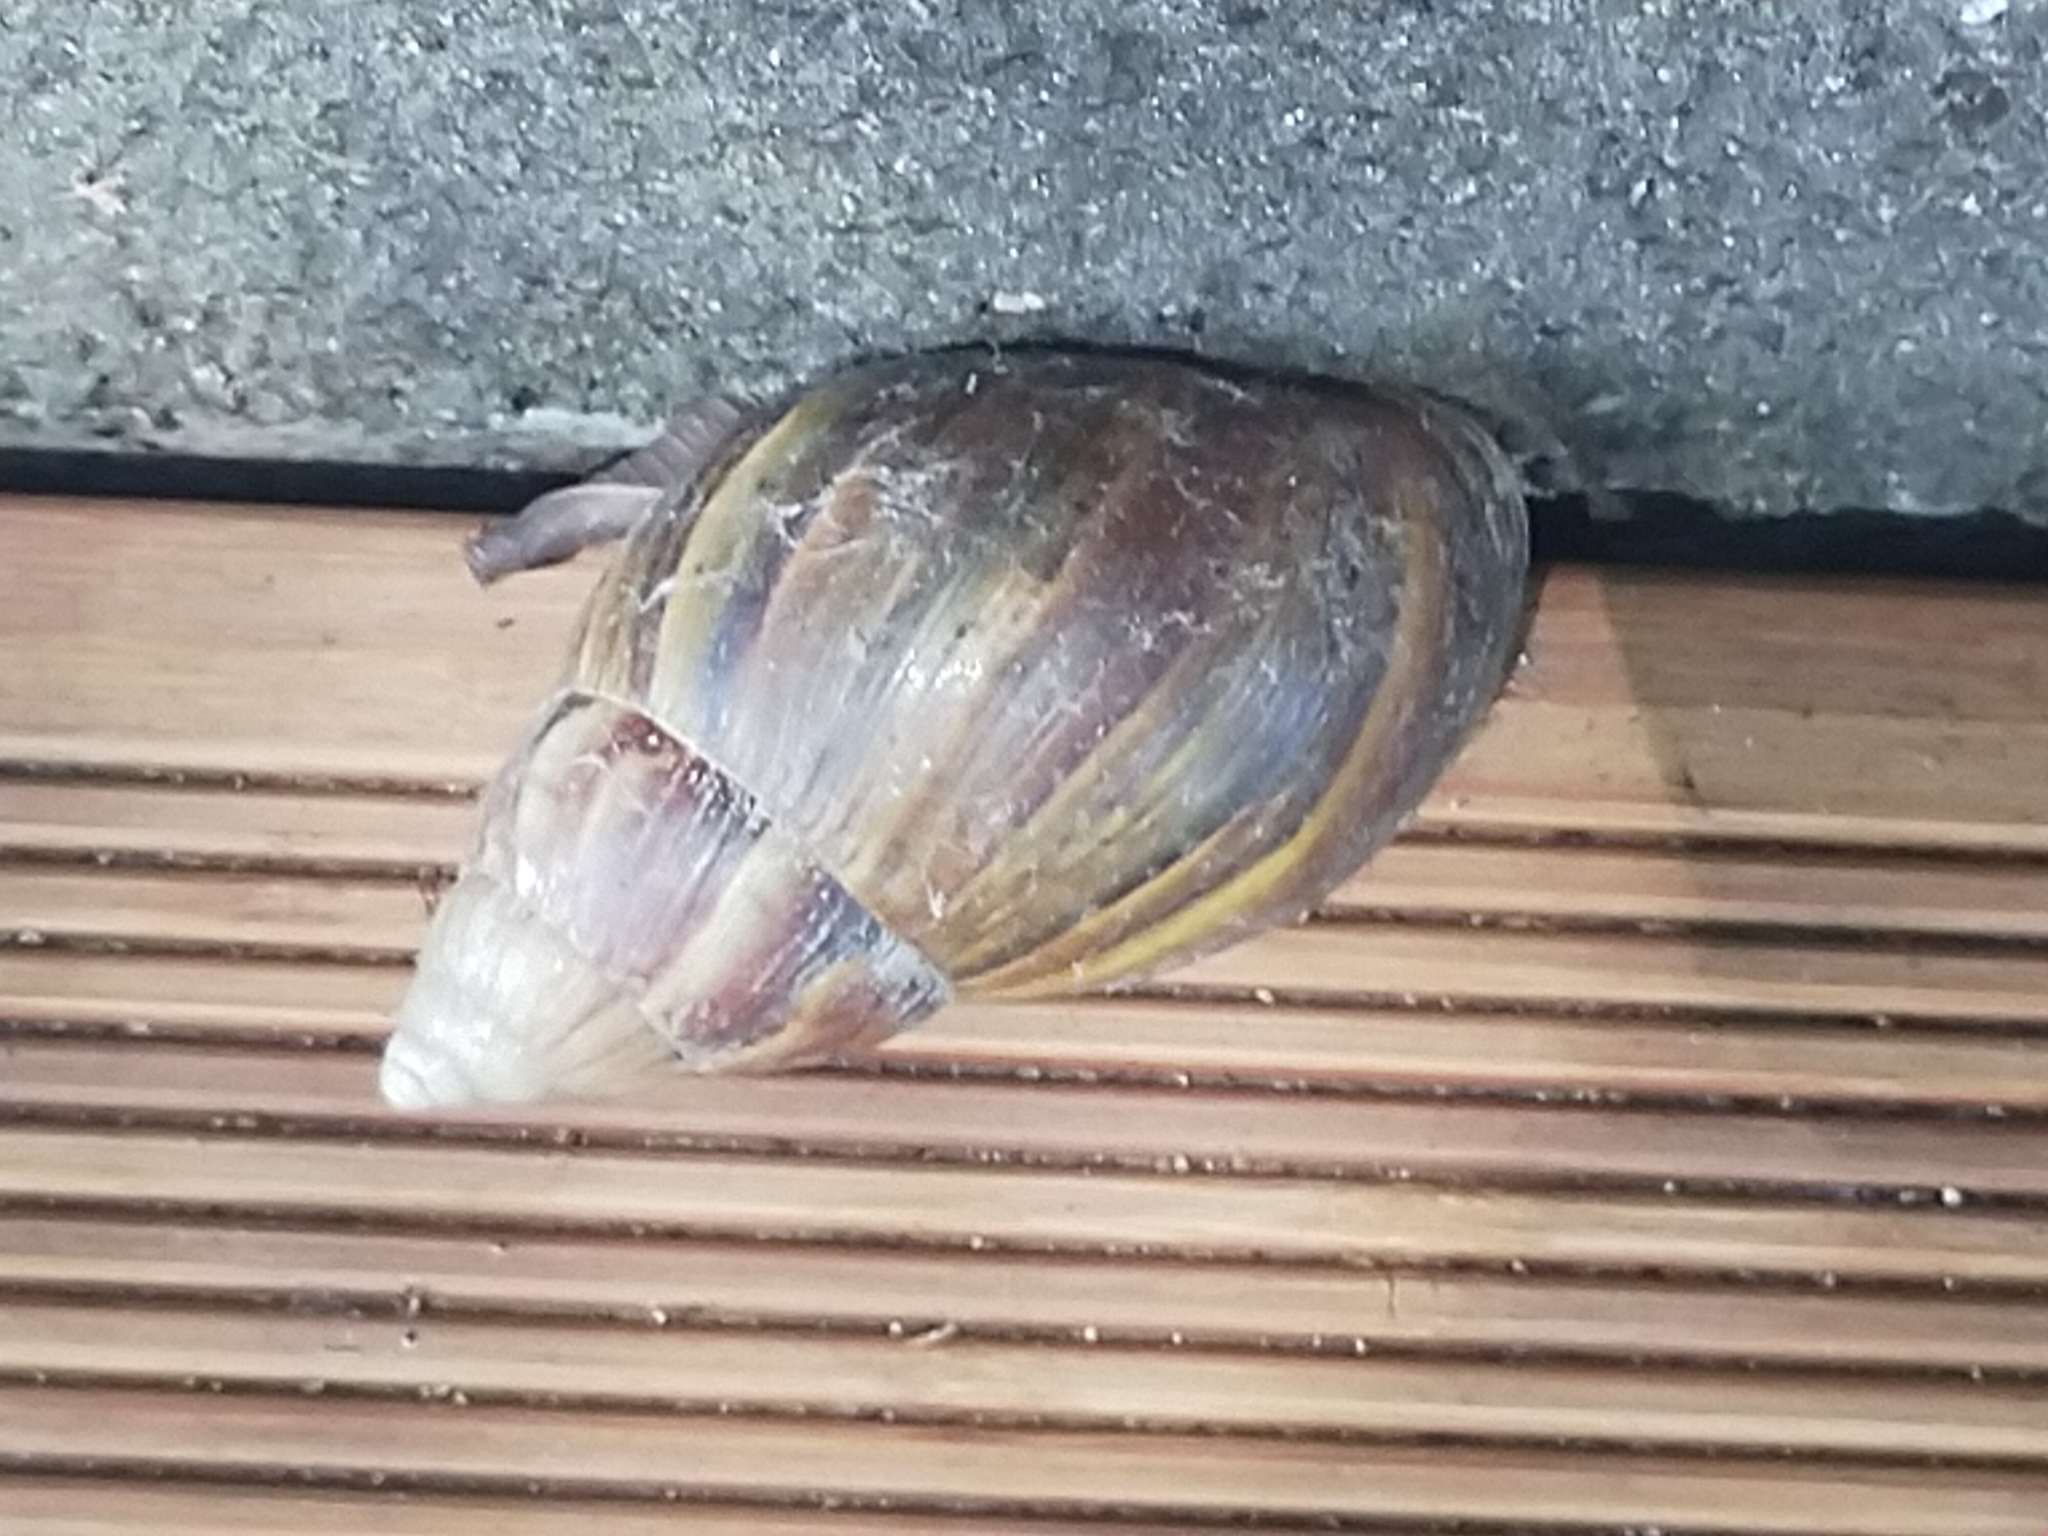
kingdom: Animalia
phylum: Mollusca
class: Gastropoda
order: Stylommatophora
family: Achatinidae
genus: Lissachatina
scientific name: Lissachatina fulica
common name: Giant african snail
